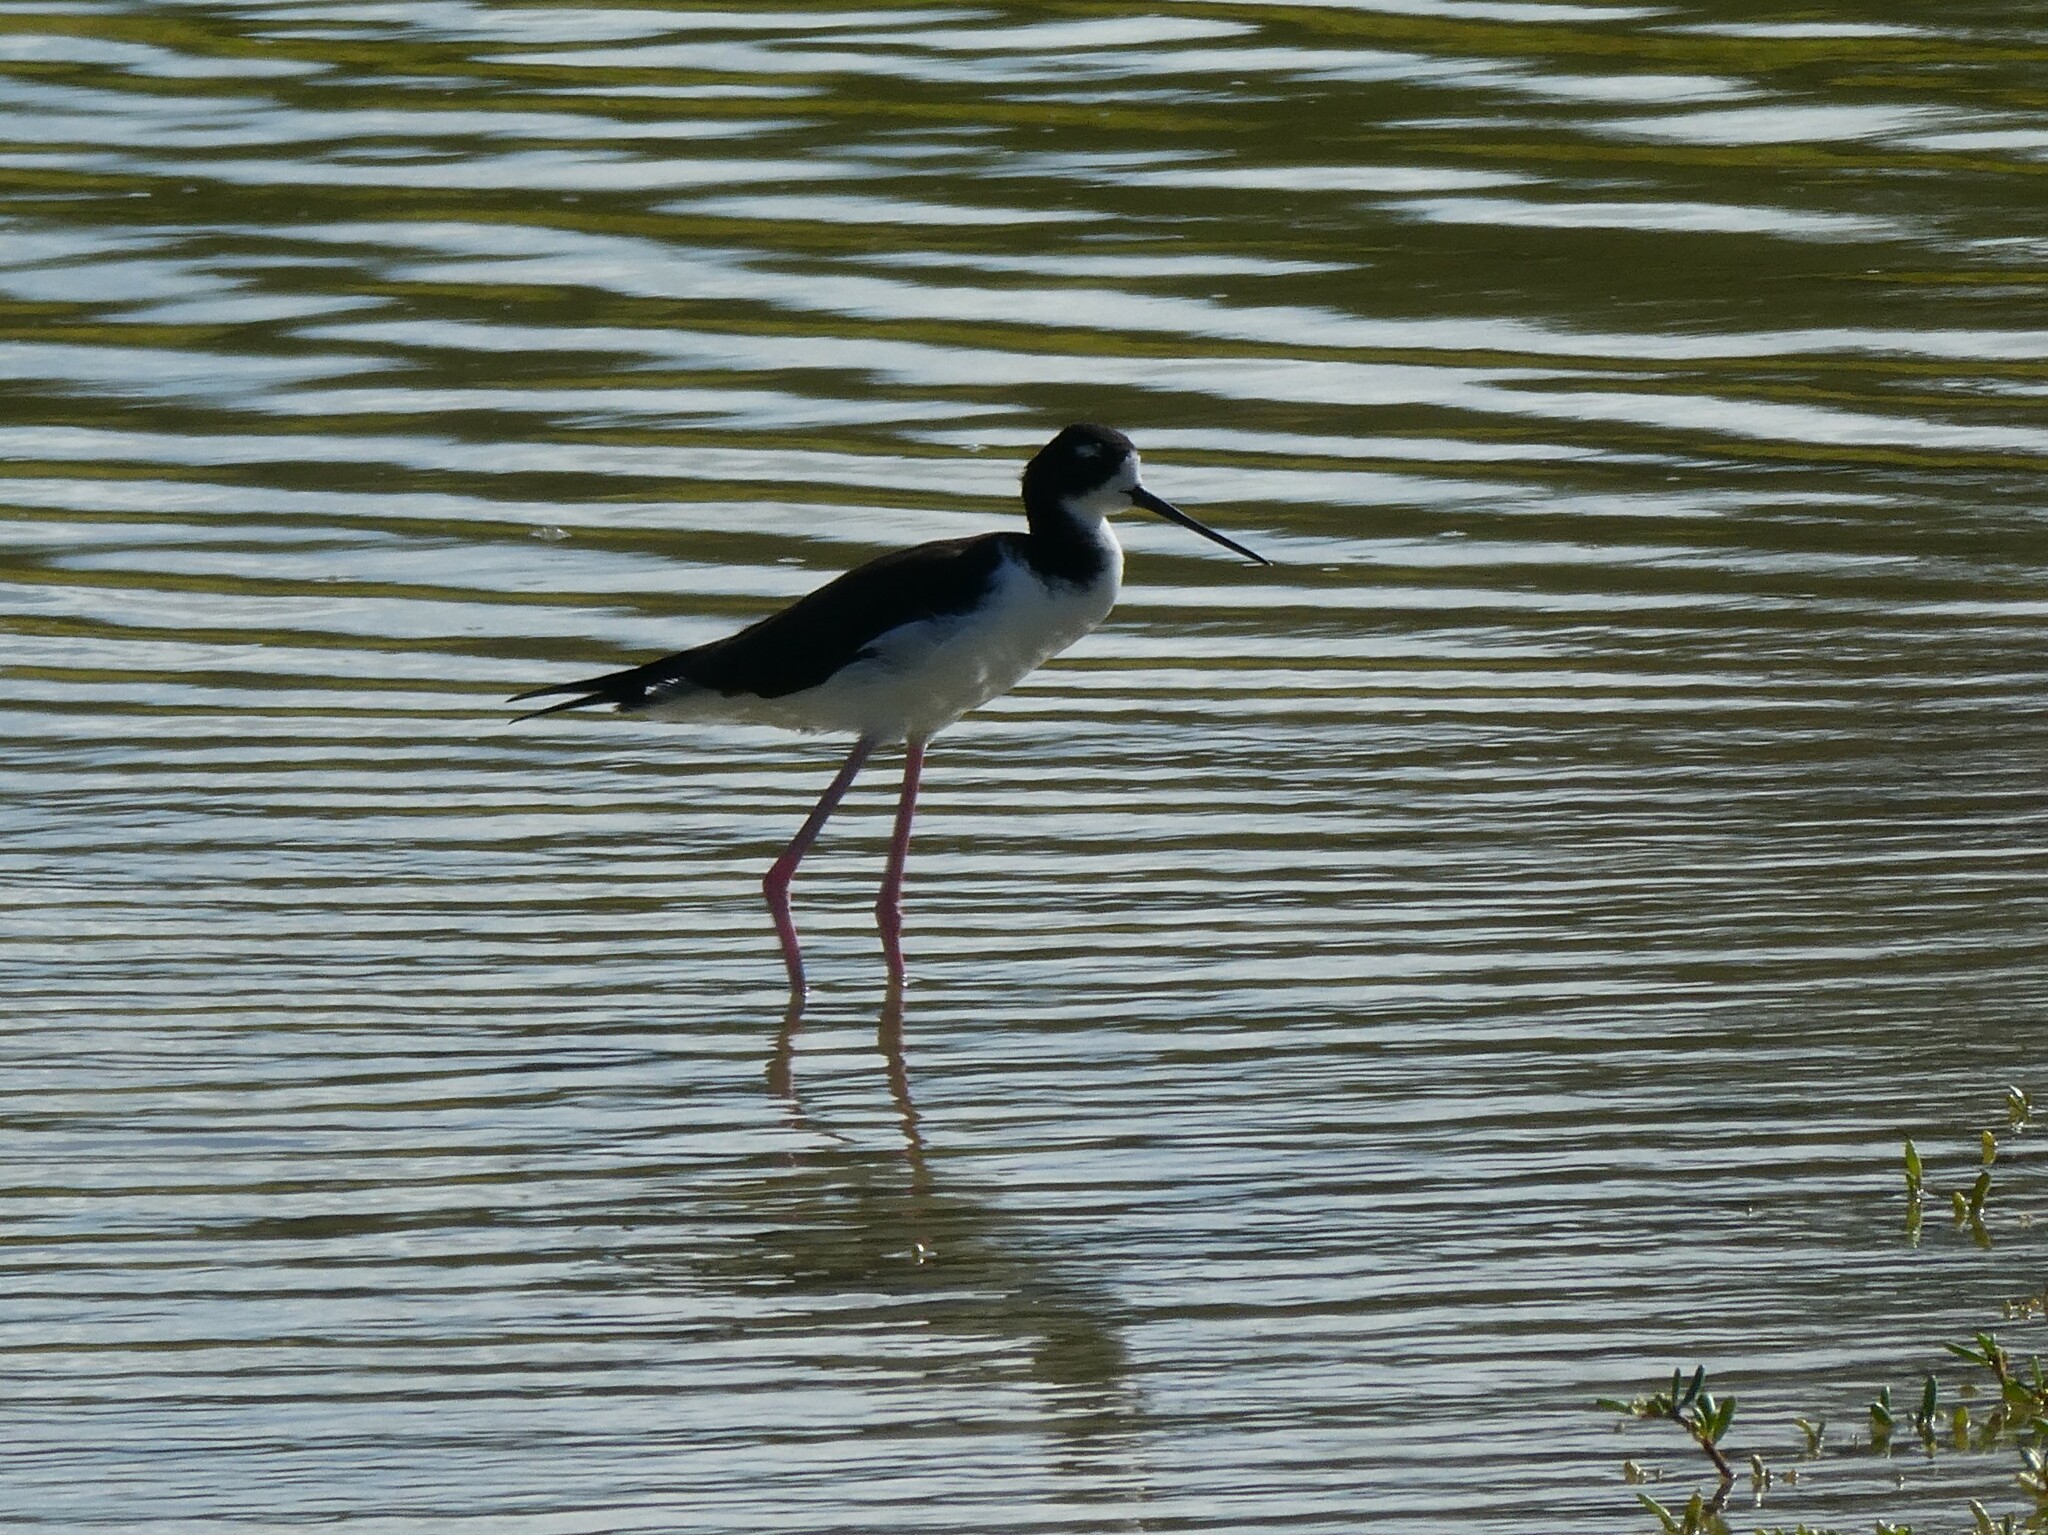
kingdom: Animalia
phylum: Chordata
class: Aves
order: Charadriiformes
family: Recurvirostridae
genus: Himantopus
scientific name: Himantopus mexicanus
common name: Black-necked stilt
